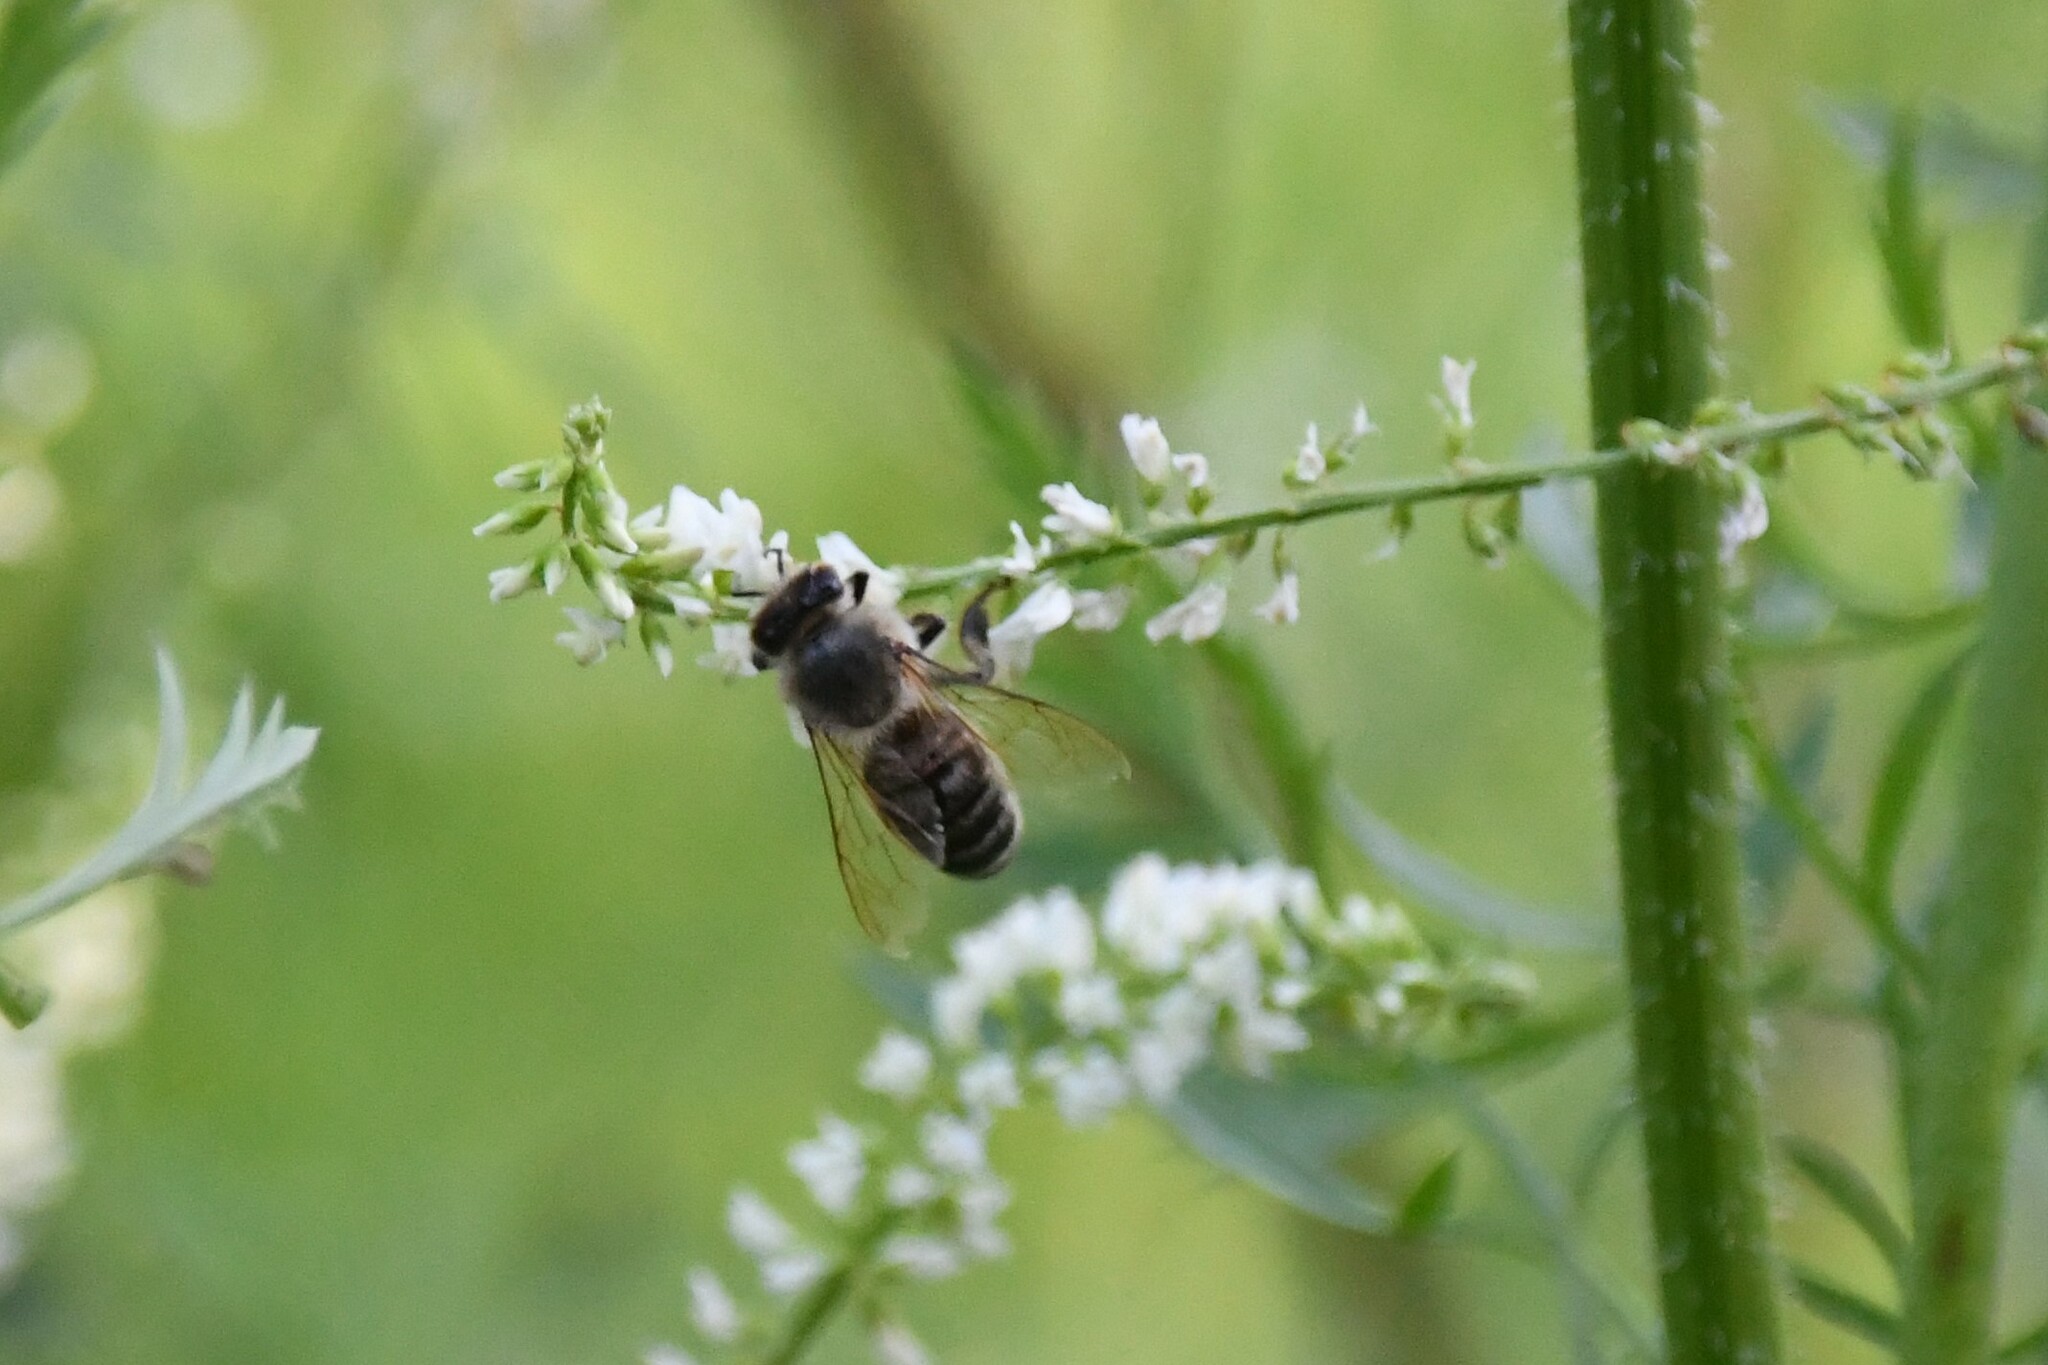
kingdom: Animalia
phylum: Arthropoda
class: Insecta
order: Hymenoptera
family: Apidae
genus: Apis
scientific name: Apis mellifera
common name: Honey bee
